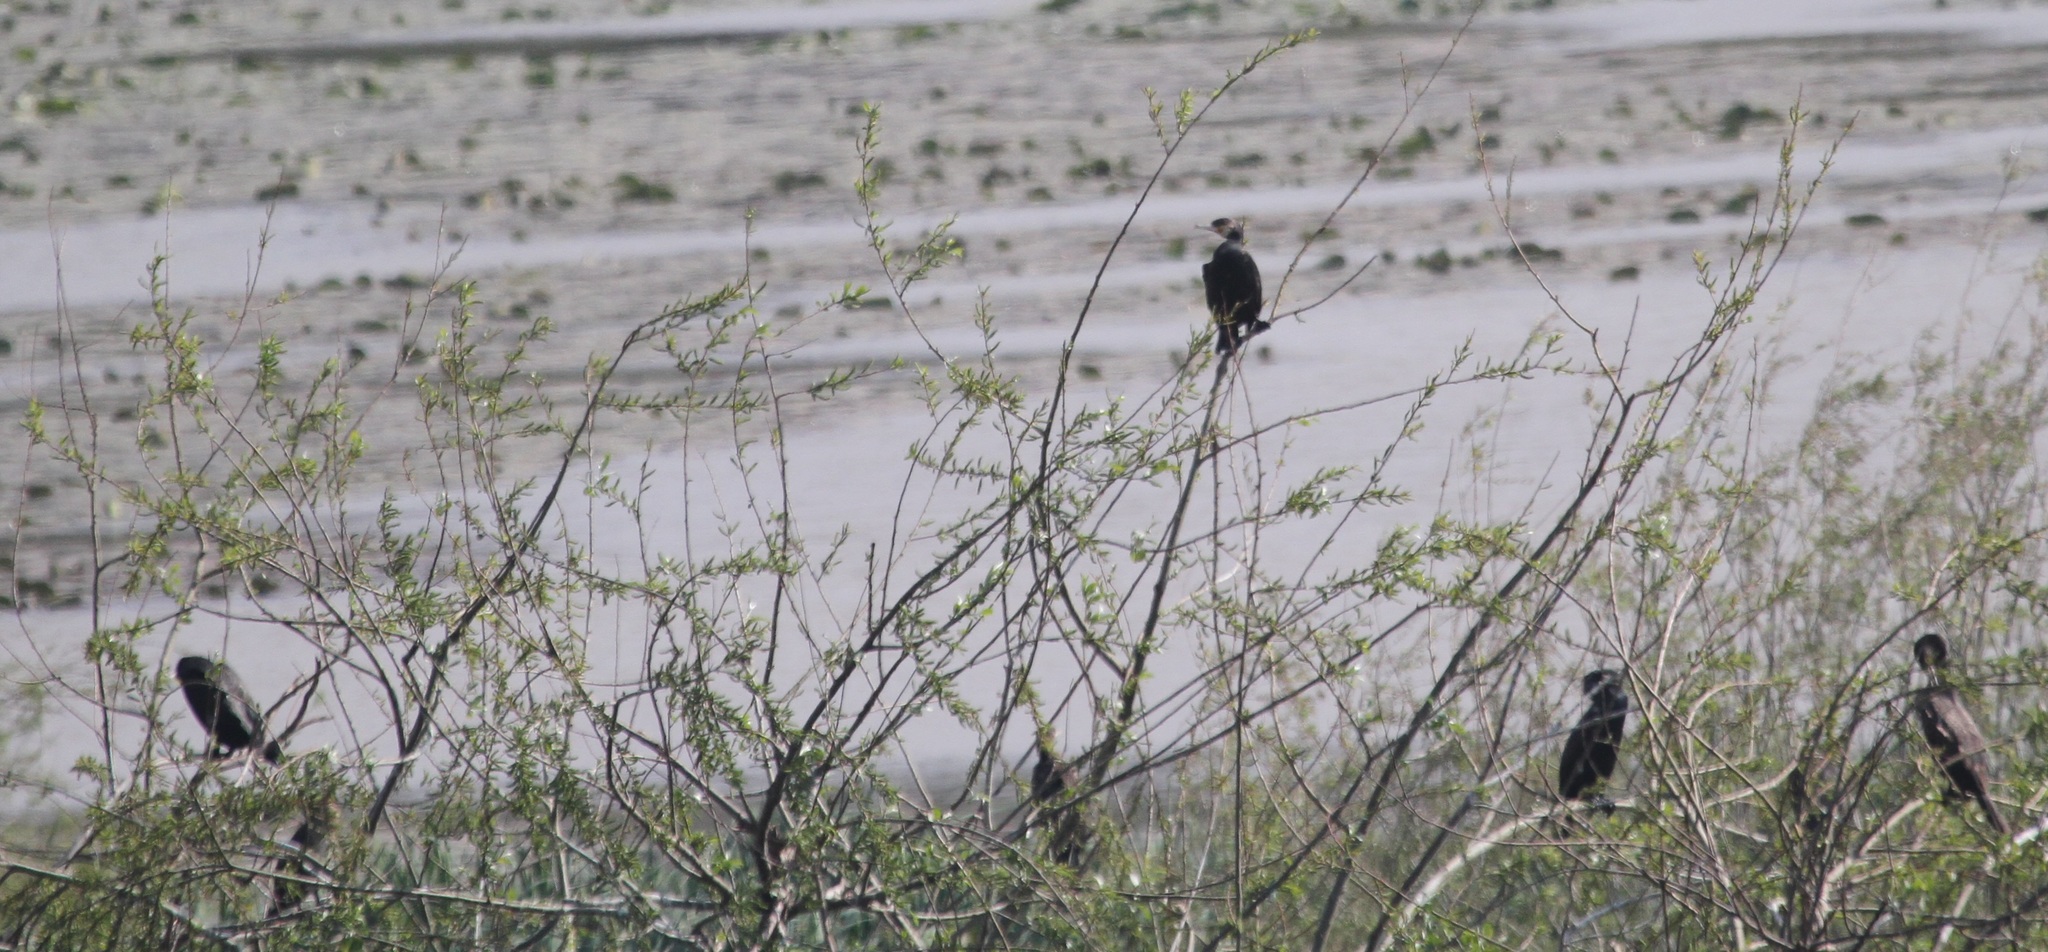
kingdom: Animalia
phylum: Chordata
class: Aves
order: Suliformes
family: Phalacrocoracidae
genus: Phalacrocorax
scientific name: Phalacrocorax carbo
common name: Great cormorant
